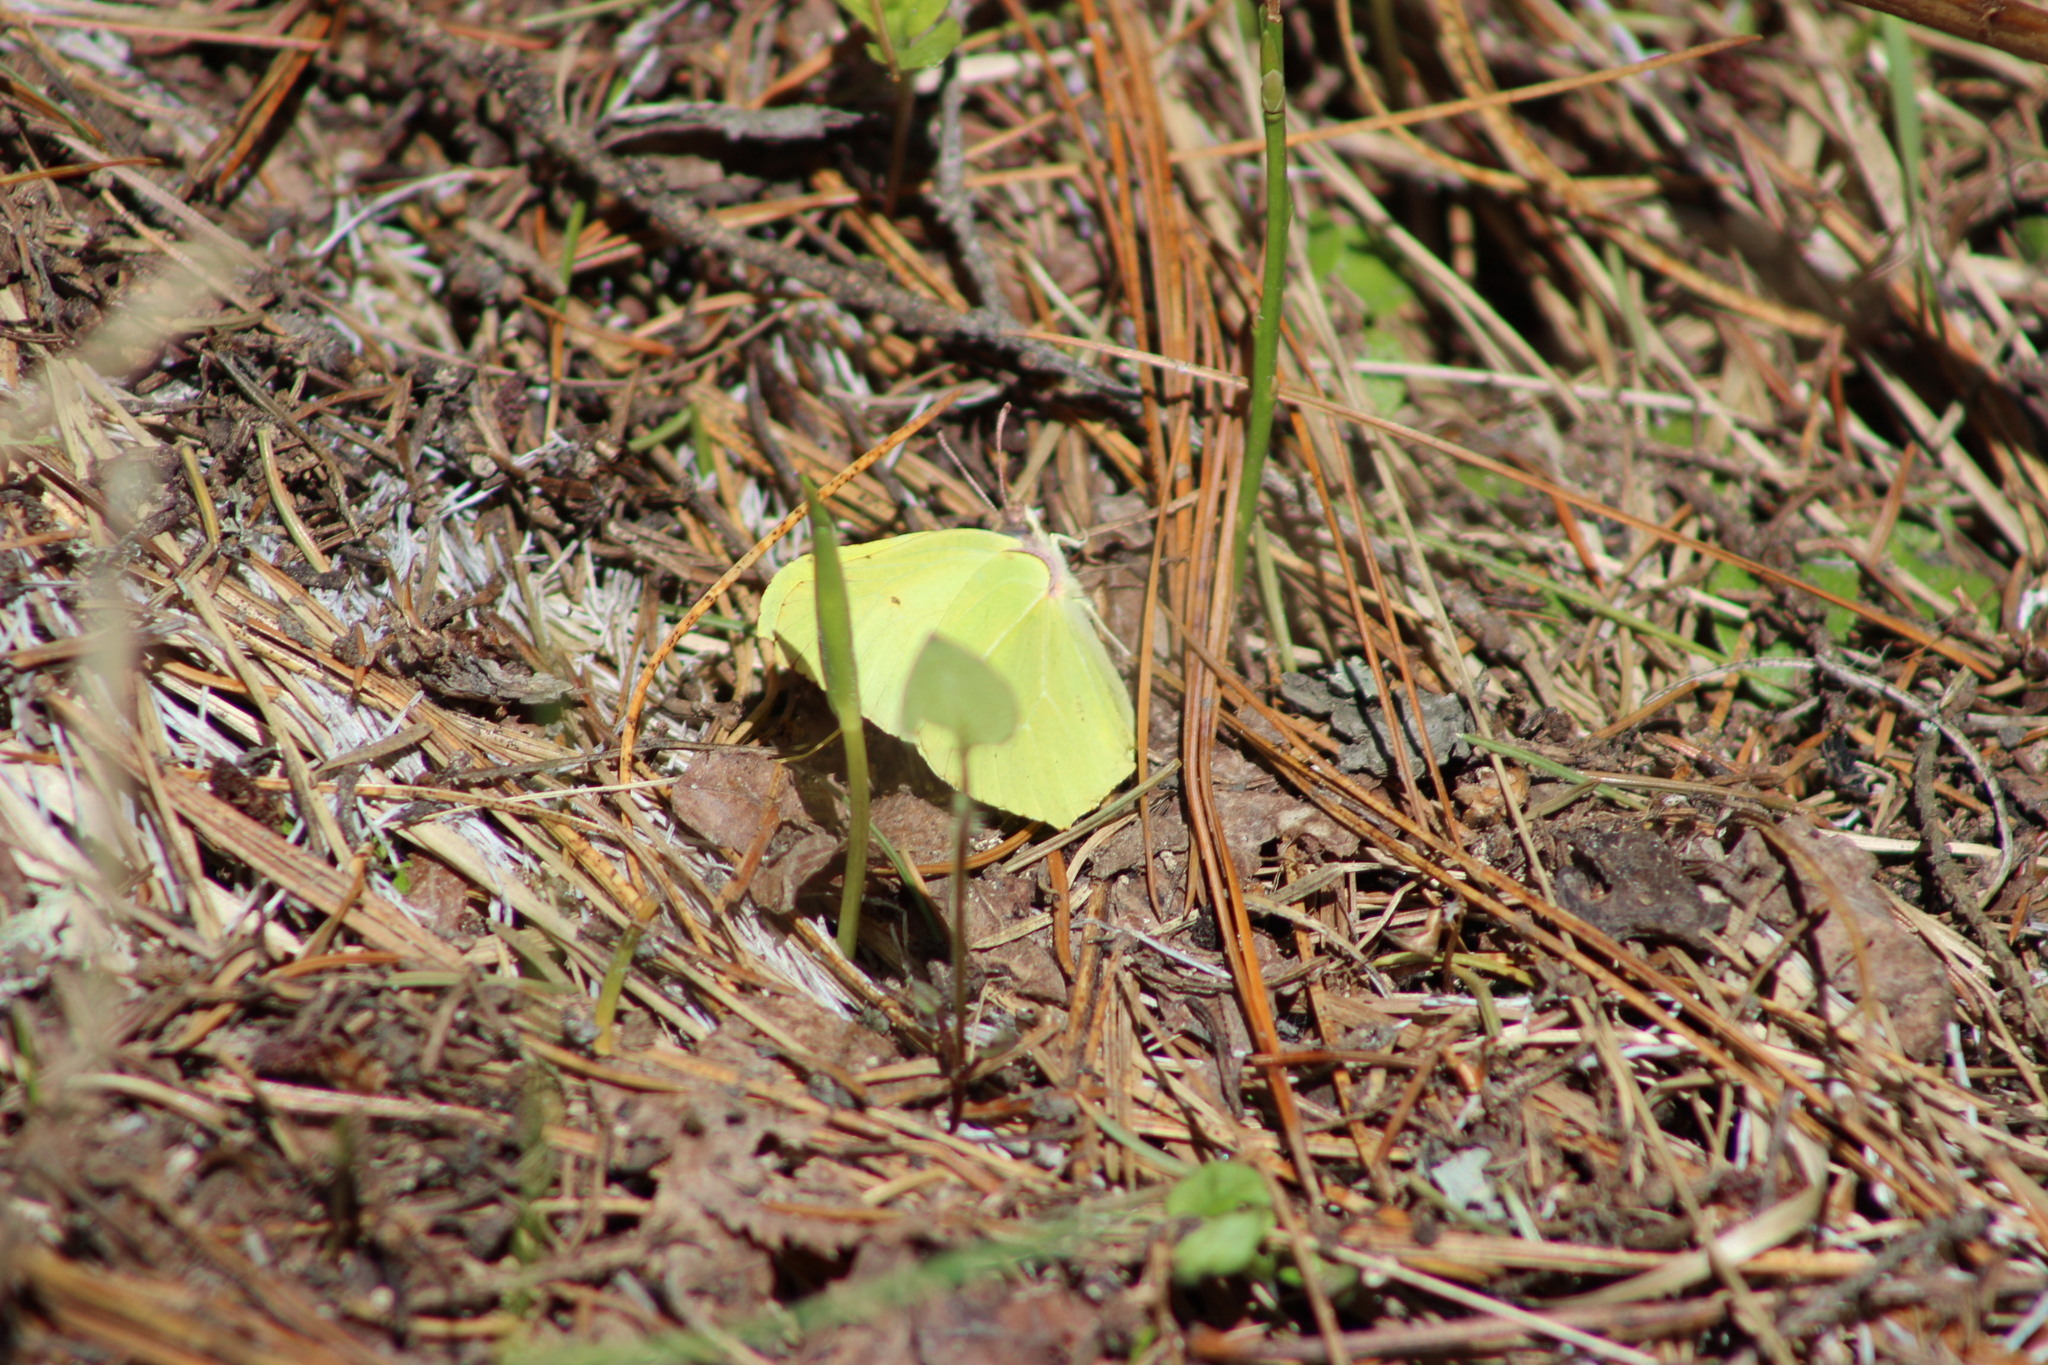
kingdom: Animalia
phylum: Arthropoda
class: Insecta
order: Lepidoptera
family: Pieridae
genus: Gonepteryx
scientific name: Gonepteryx rhamni
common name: Brimstone
